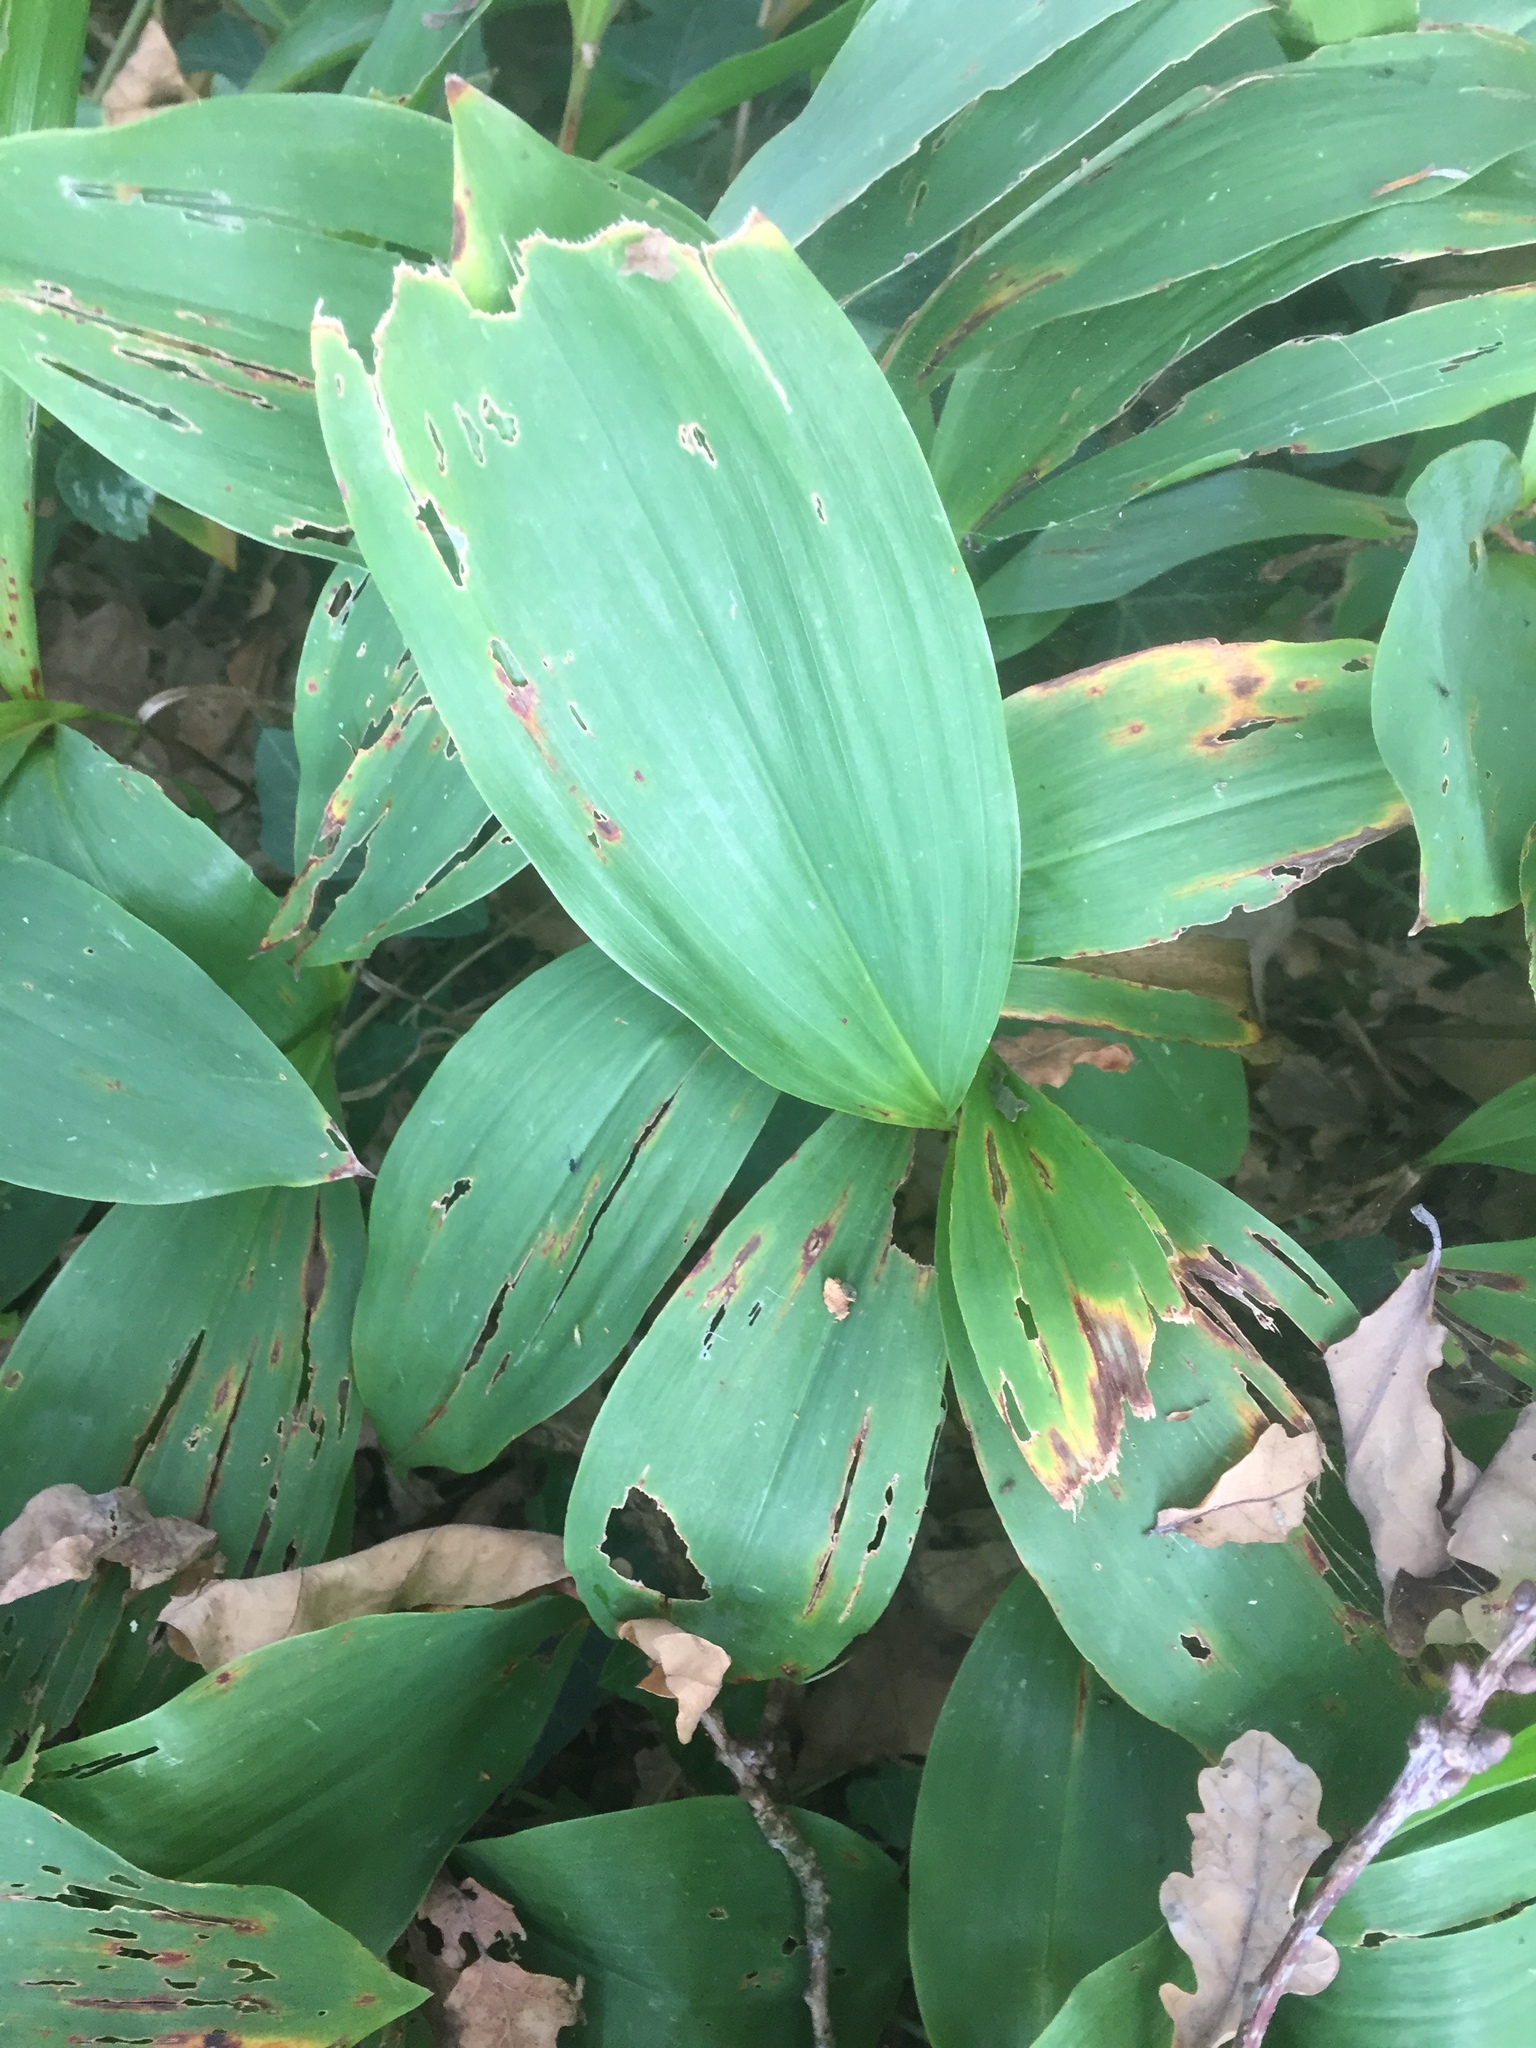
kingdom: Plantae
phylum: Tracheophyta
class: Liliopsida
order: Asparagales
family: Asparagaceae
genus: Convallaria
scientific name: Convallaria majalis
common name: Lily-of-the-valley
